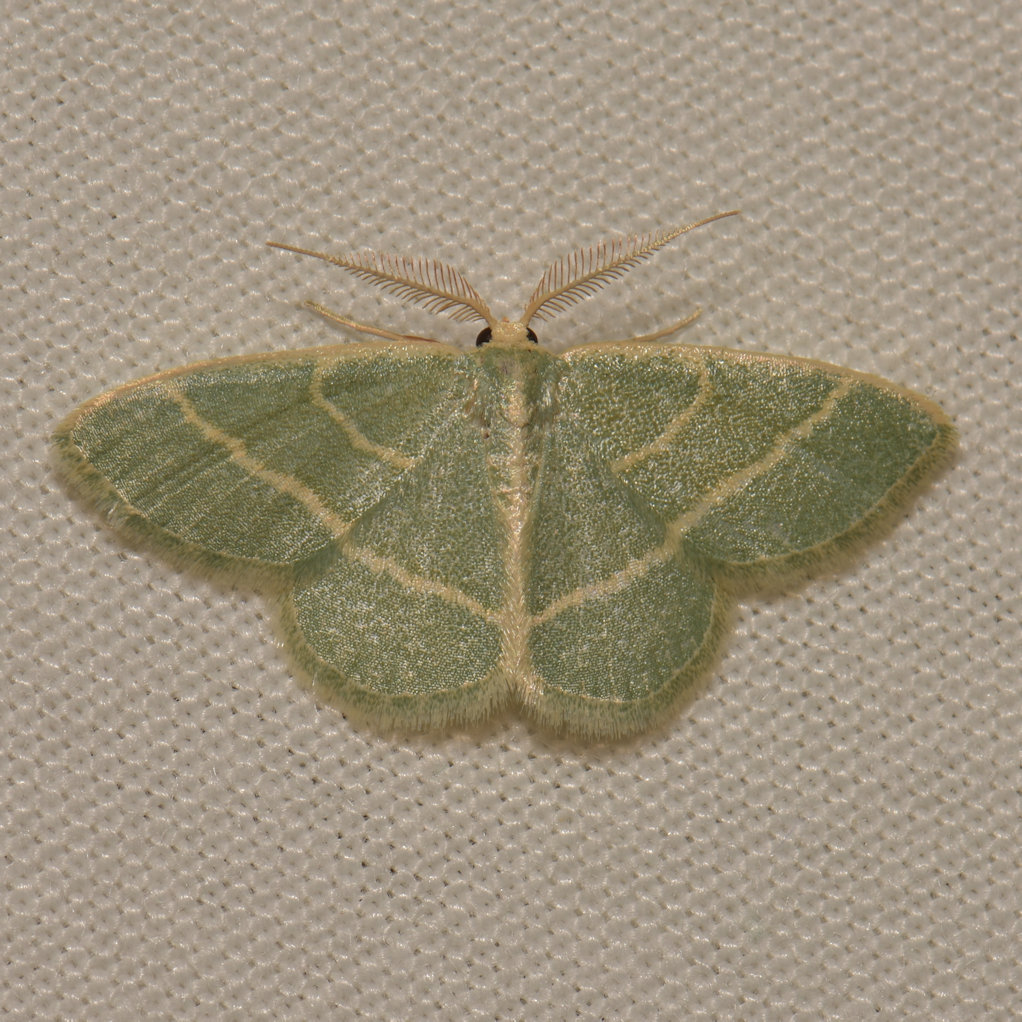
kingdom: Animalia
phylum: Arthropoda
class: Insecta
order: Lepidoptera
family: Geometridae
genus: Chlorochlamys
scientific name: Chlorochlamys chloroleucaria
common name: Blackberry looper
